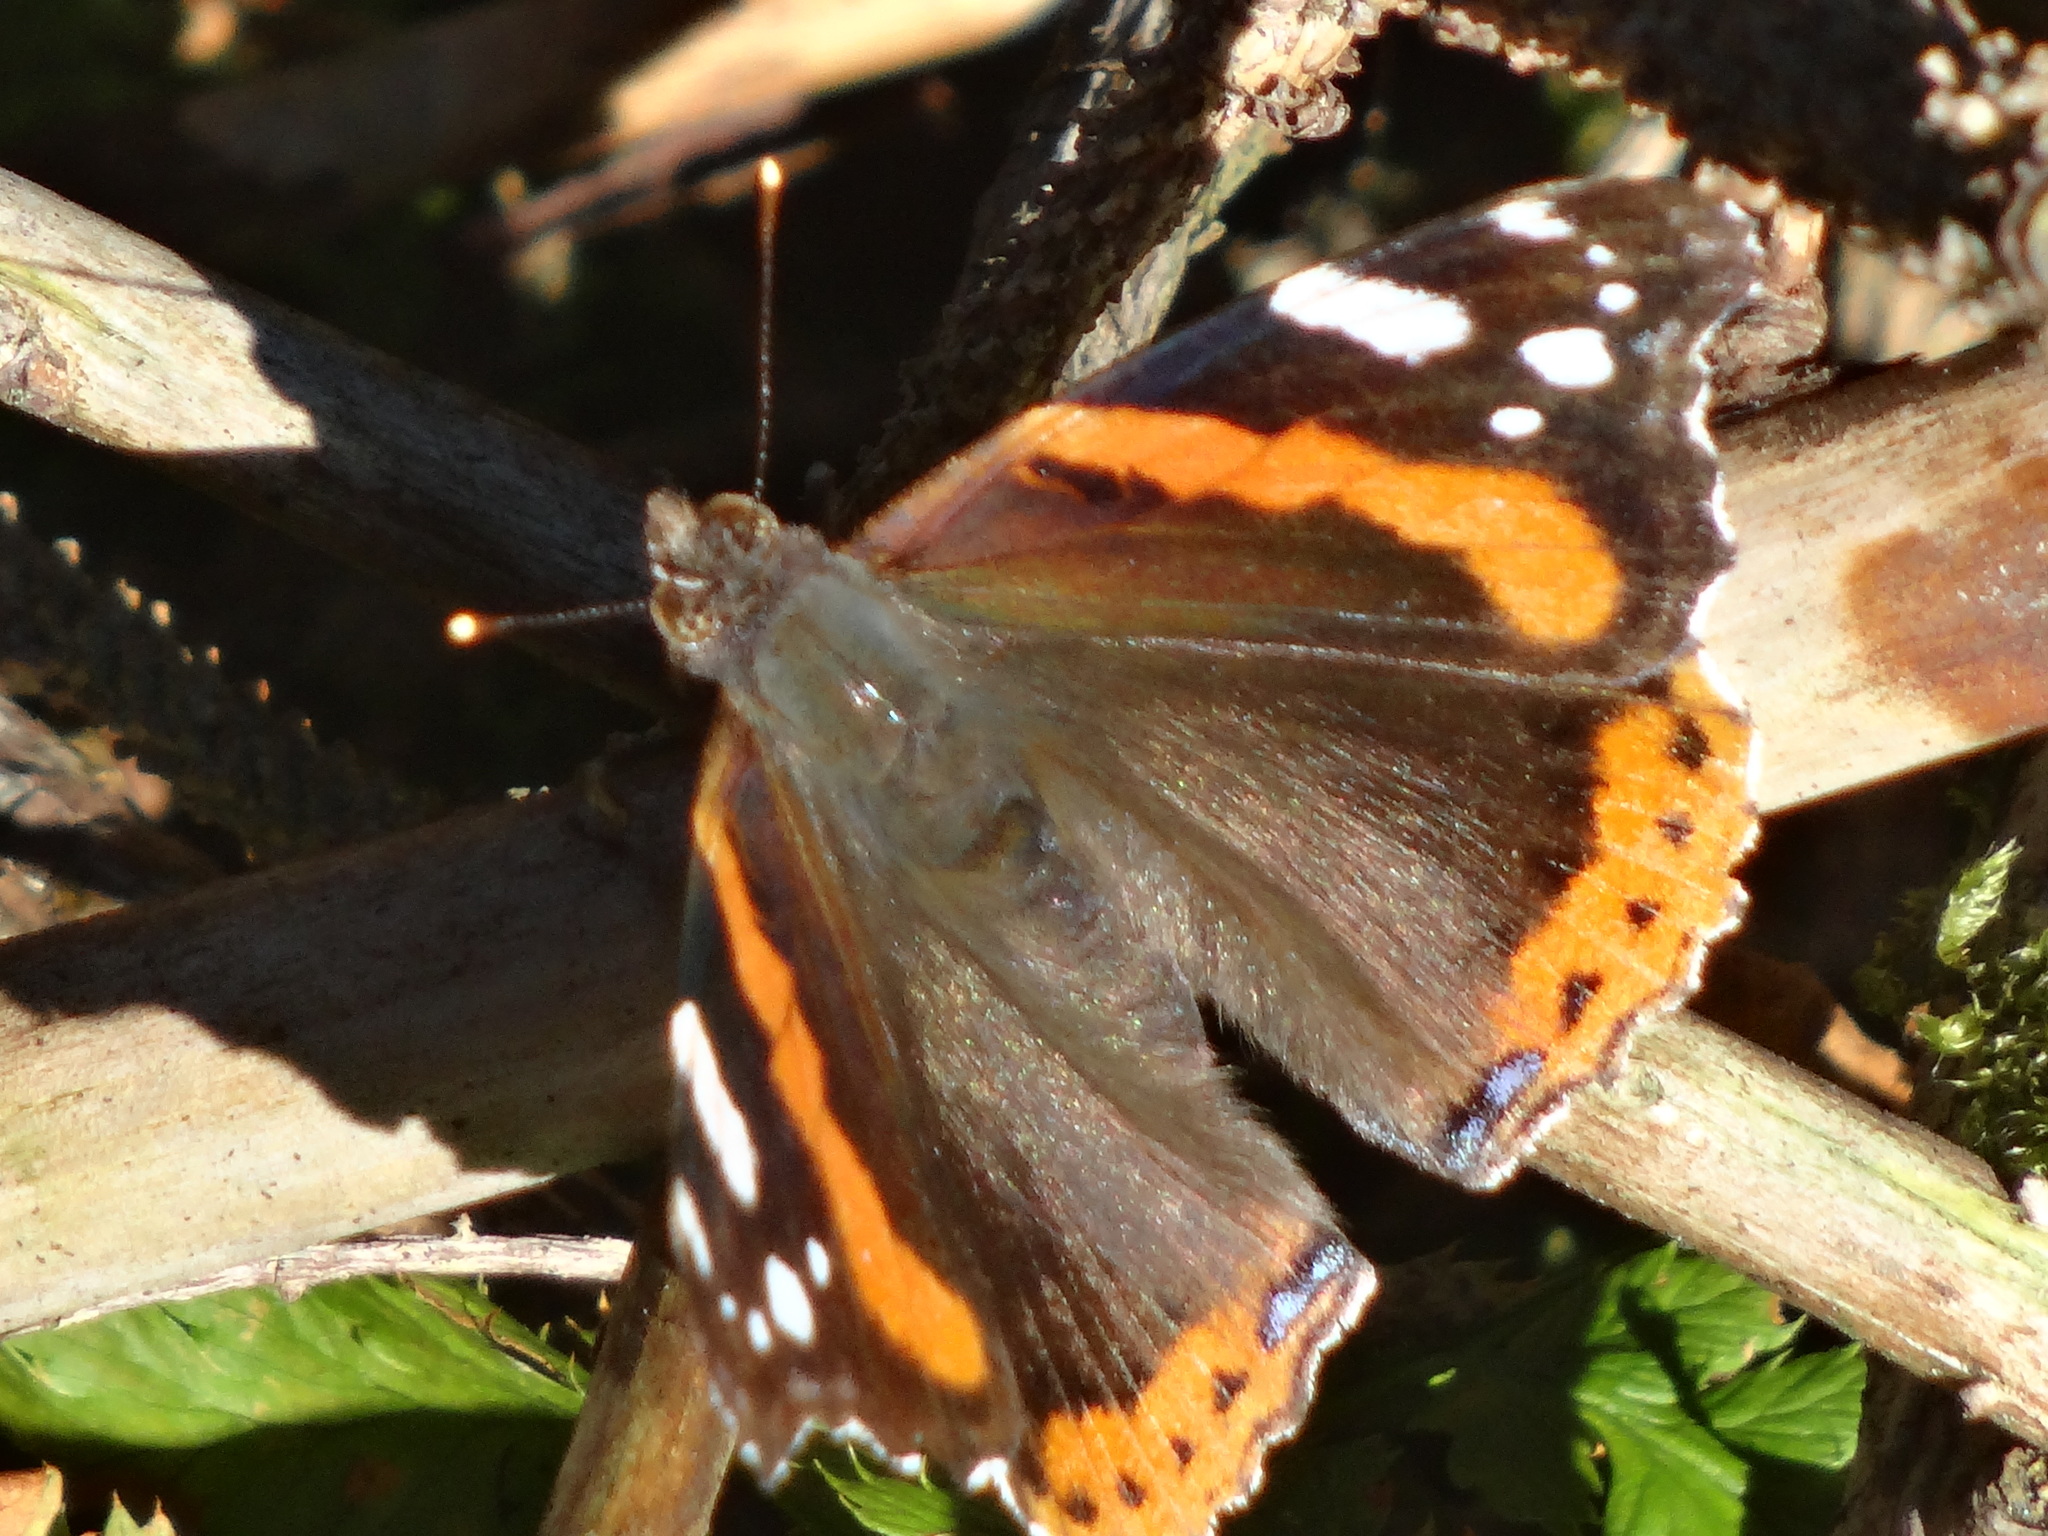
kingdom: Animalia
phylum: Arthropoda
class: Insecta
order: Lepidoptera
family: Nymphalidae
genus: Vanessa
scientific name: Vanessa atalanta
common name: Red admiral
